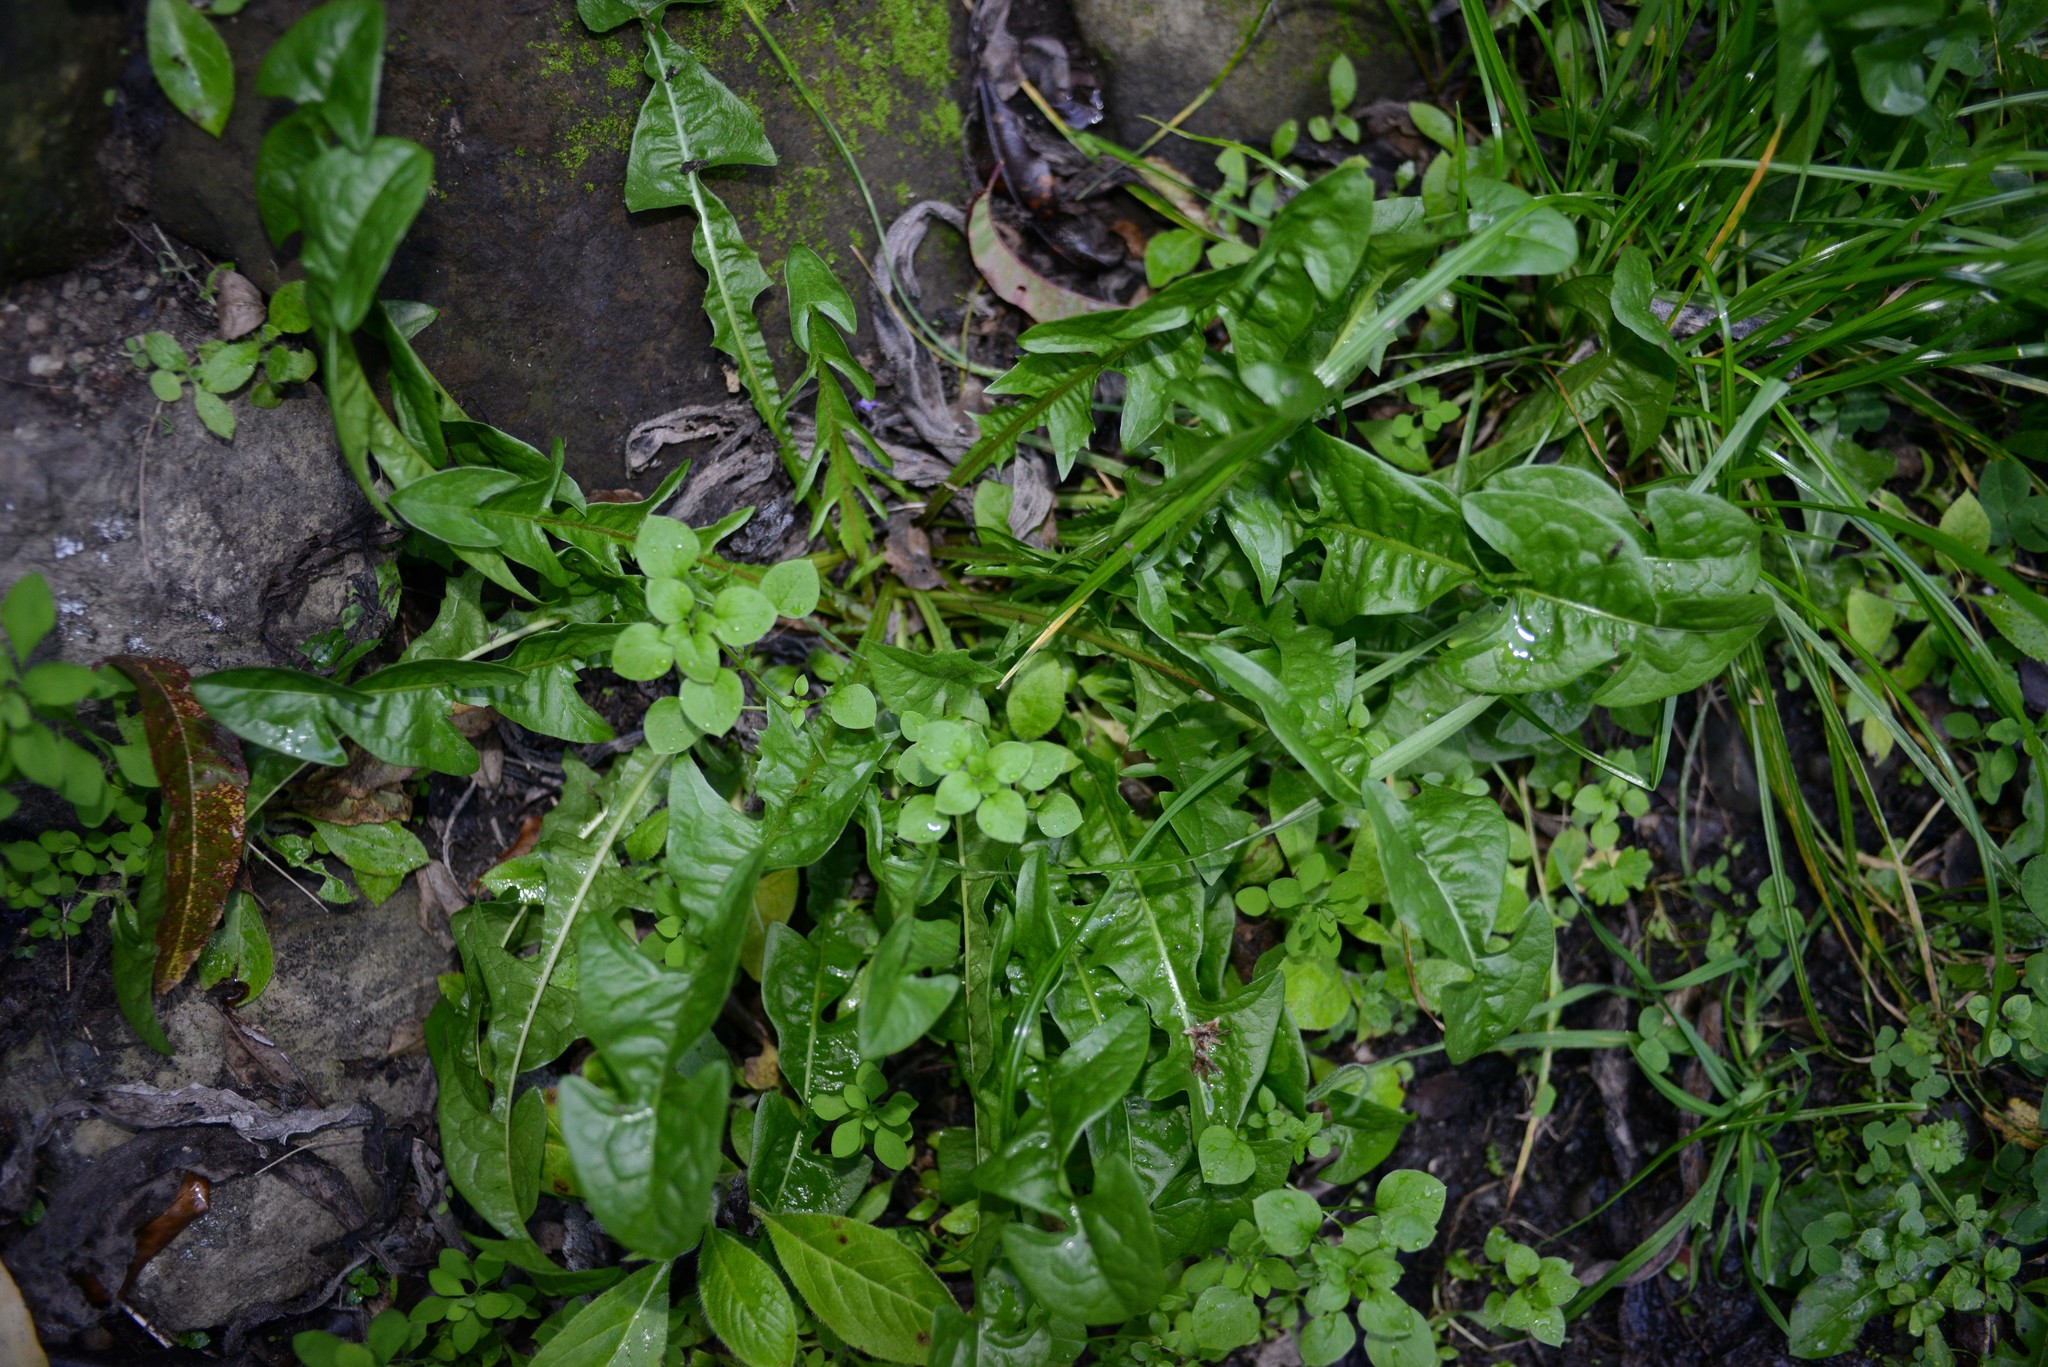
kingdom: Plantae
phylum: Tracheophyta
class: Magnoliopsida
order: Asterales
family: Asteraceae
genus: Taraxacum
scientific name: Taraxacum officinale
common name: Common dandelion
